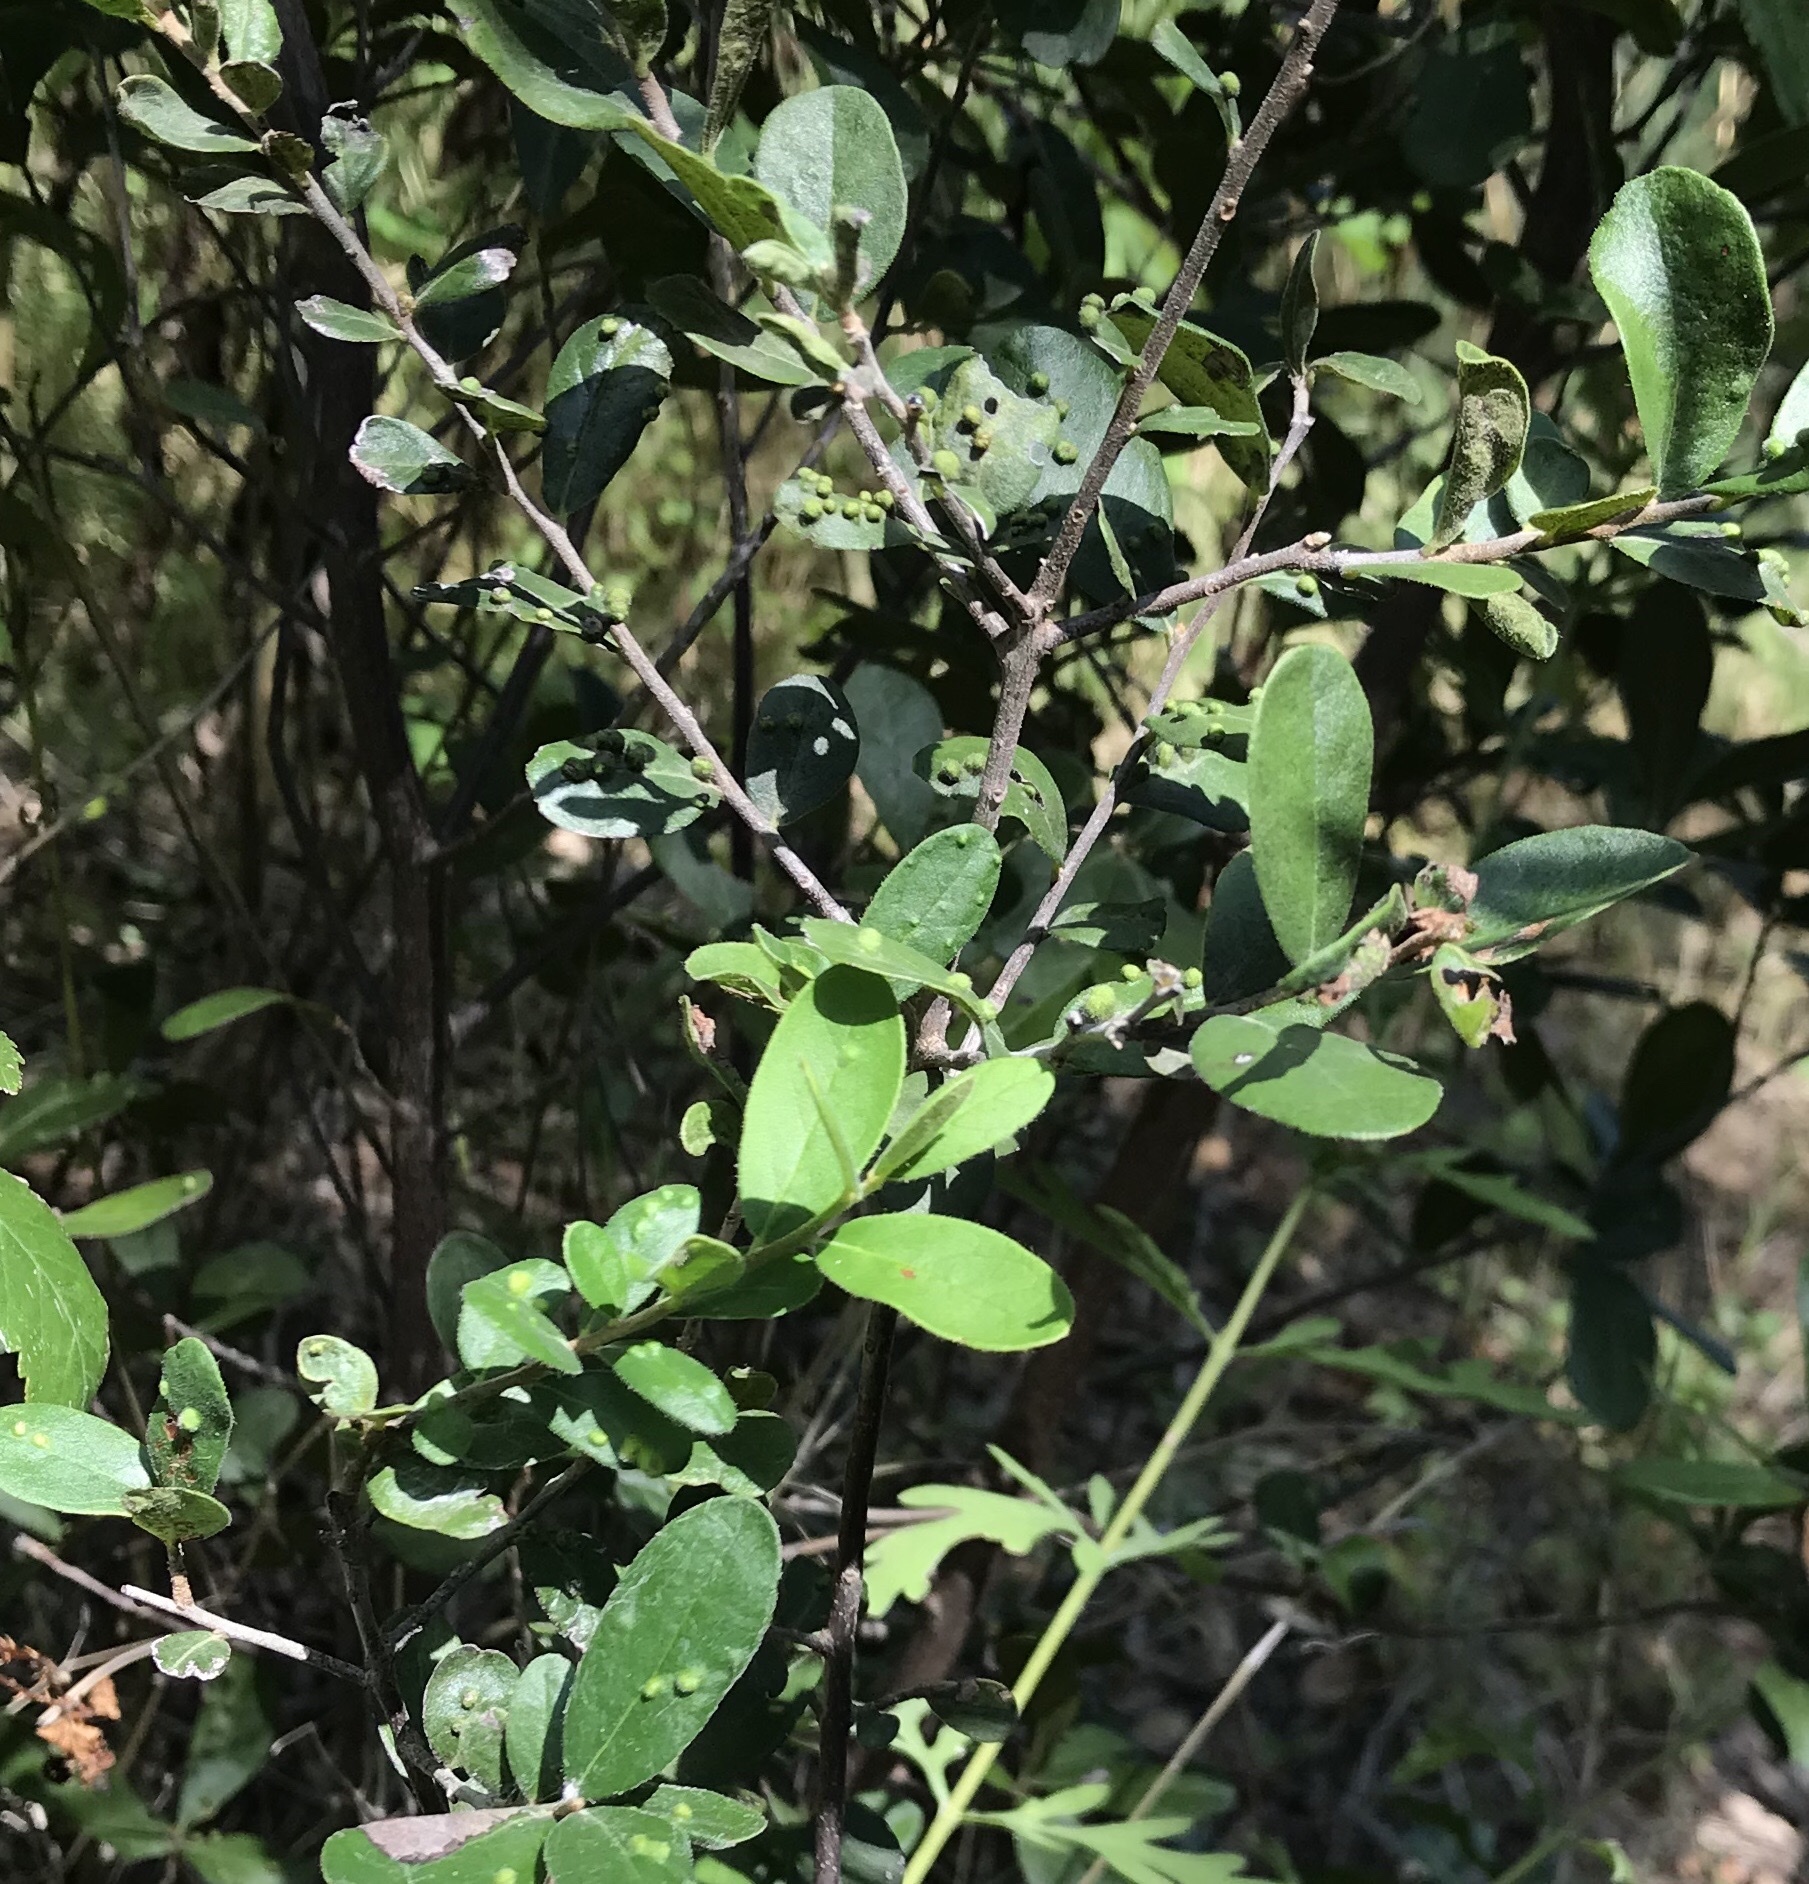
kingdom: Plantae
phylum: Tracheophyta
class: Magnoliopsida
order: Ericales
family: Ebenaceae
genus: Diospyros
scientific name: Diospyros texana
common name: Texas persimmon
